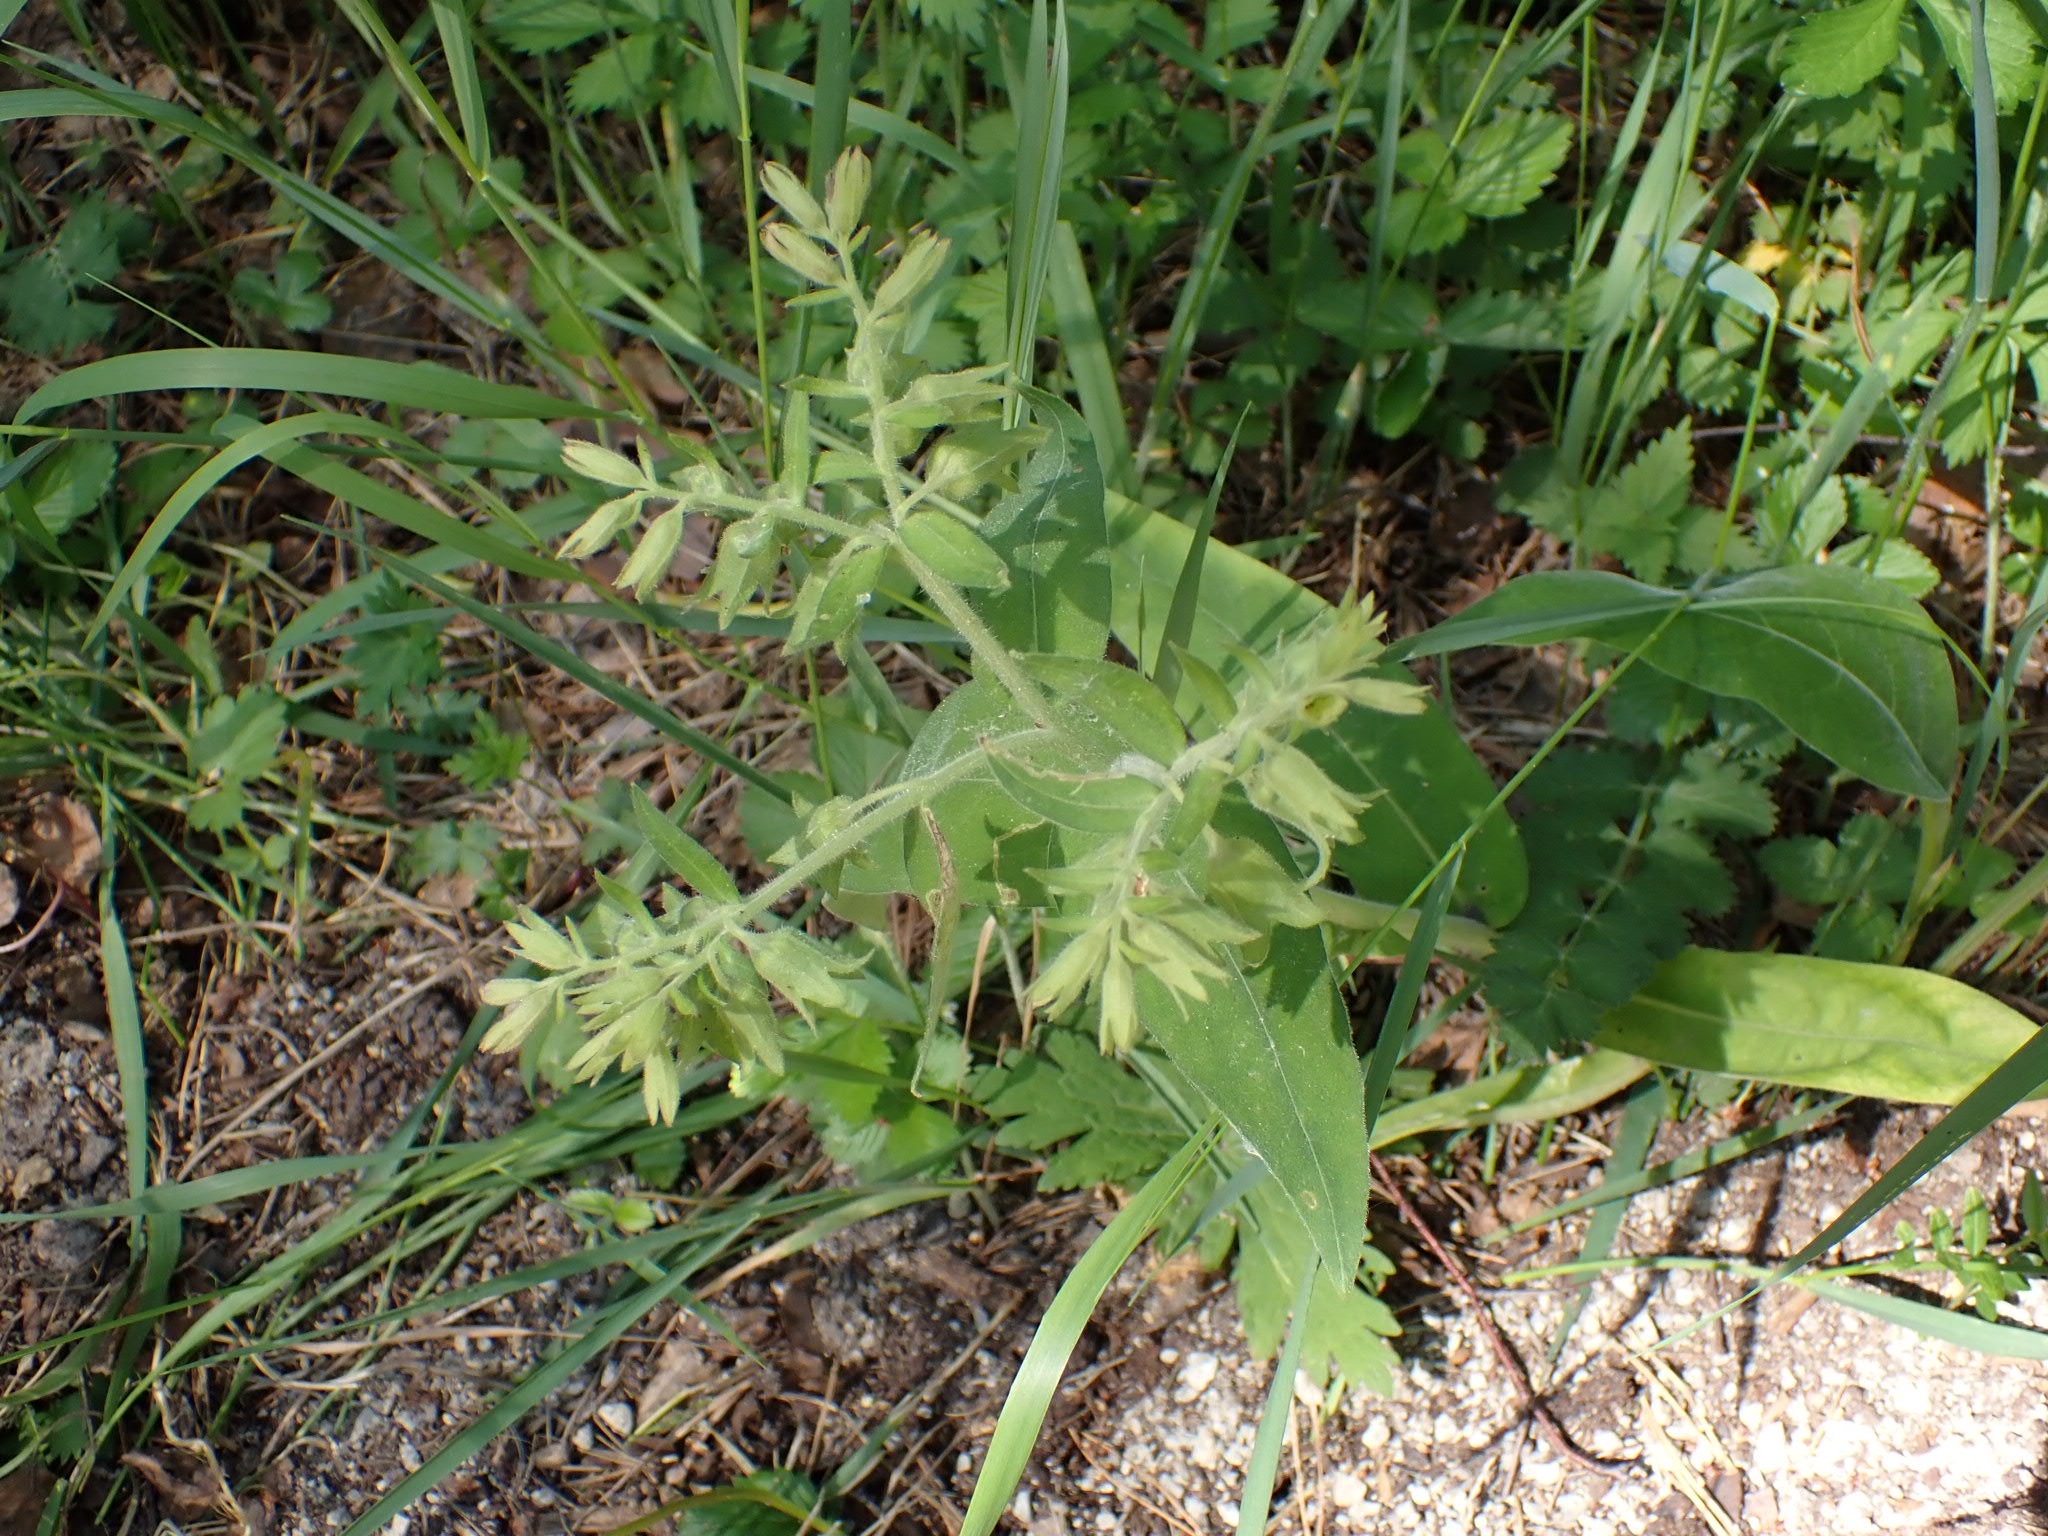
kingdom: Plantae
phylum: Tracheophyta
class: Magnoliopsida
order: Boraginales
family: Boraginaceae
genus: Pulmonaria
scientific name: Pulmonaria mollis
